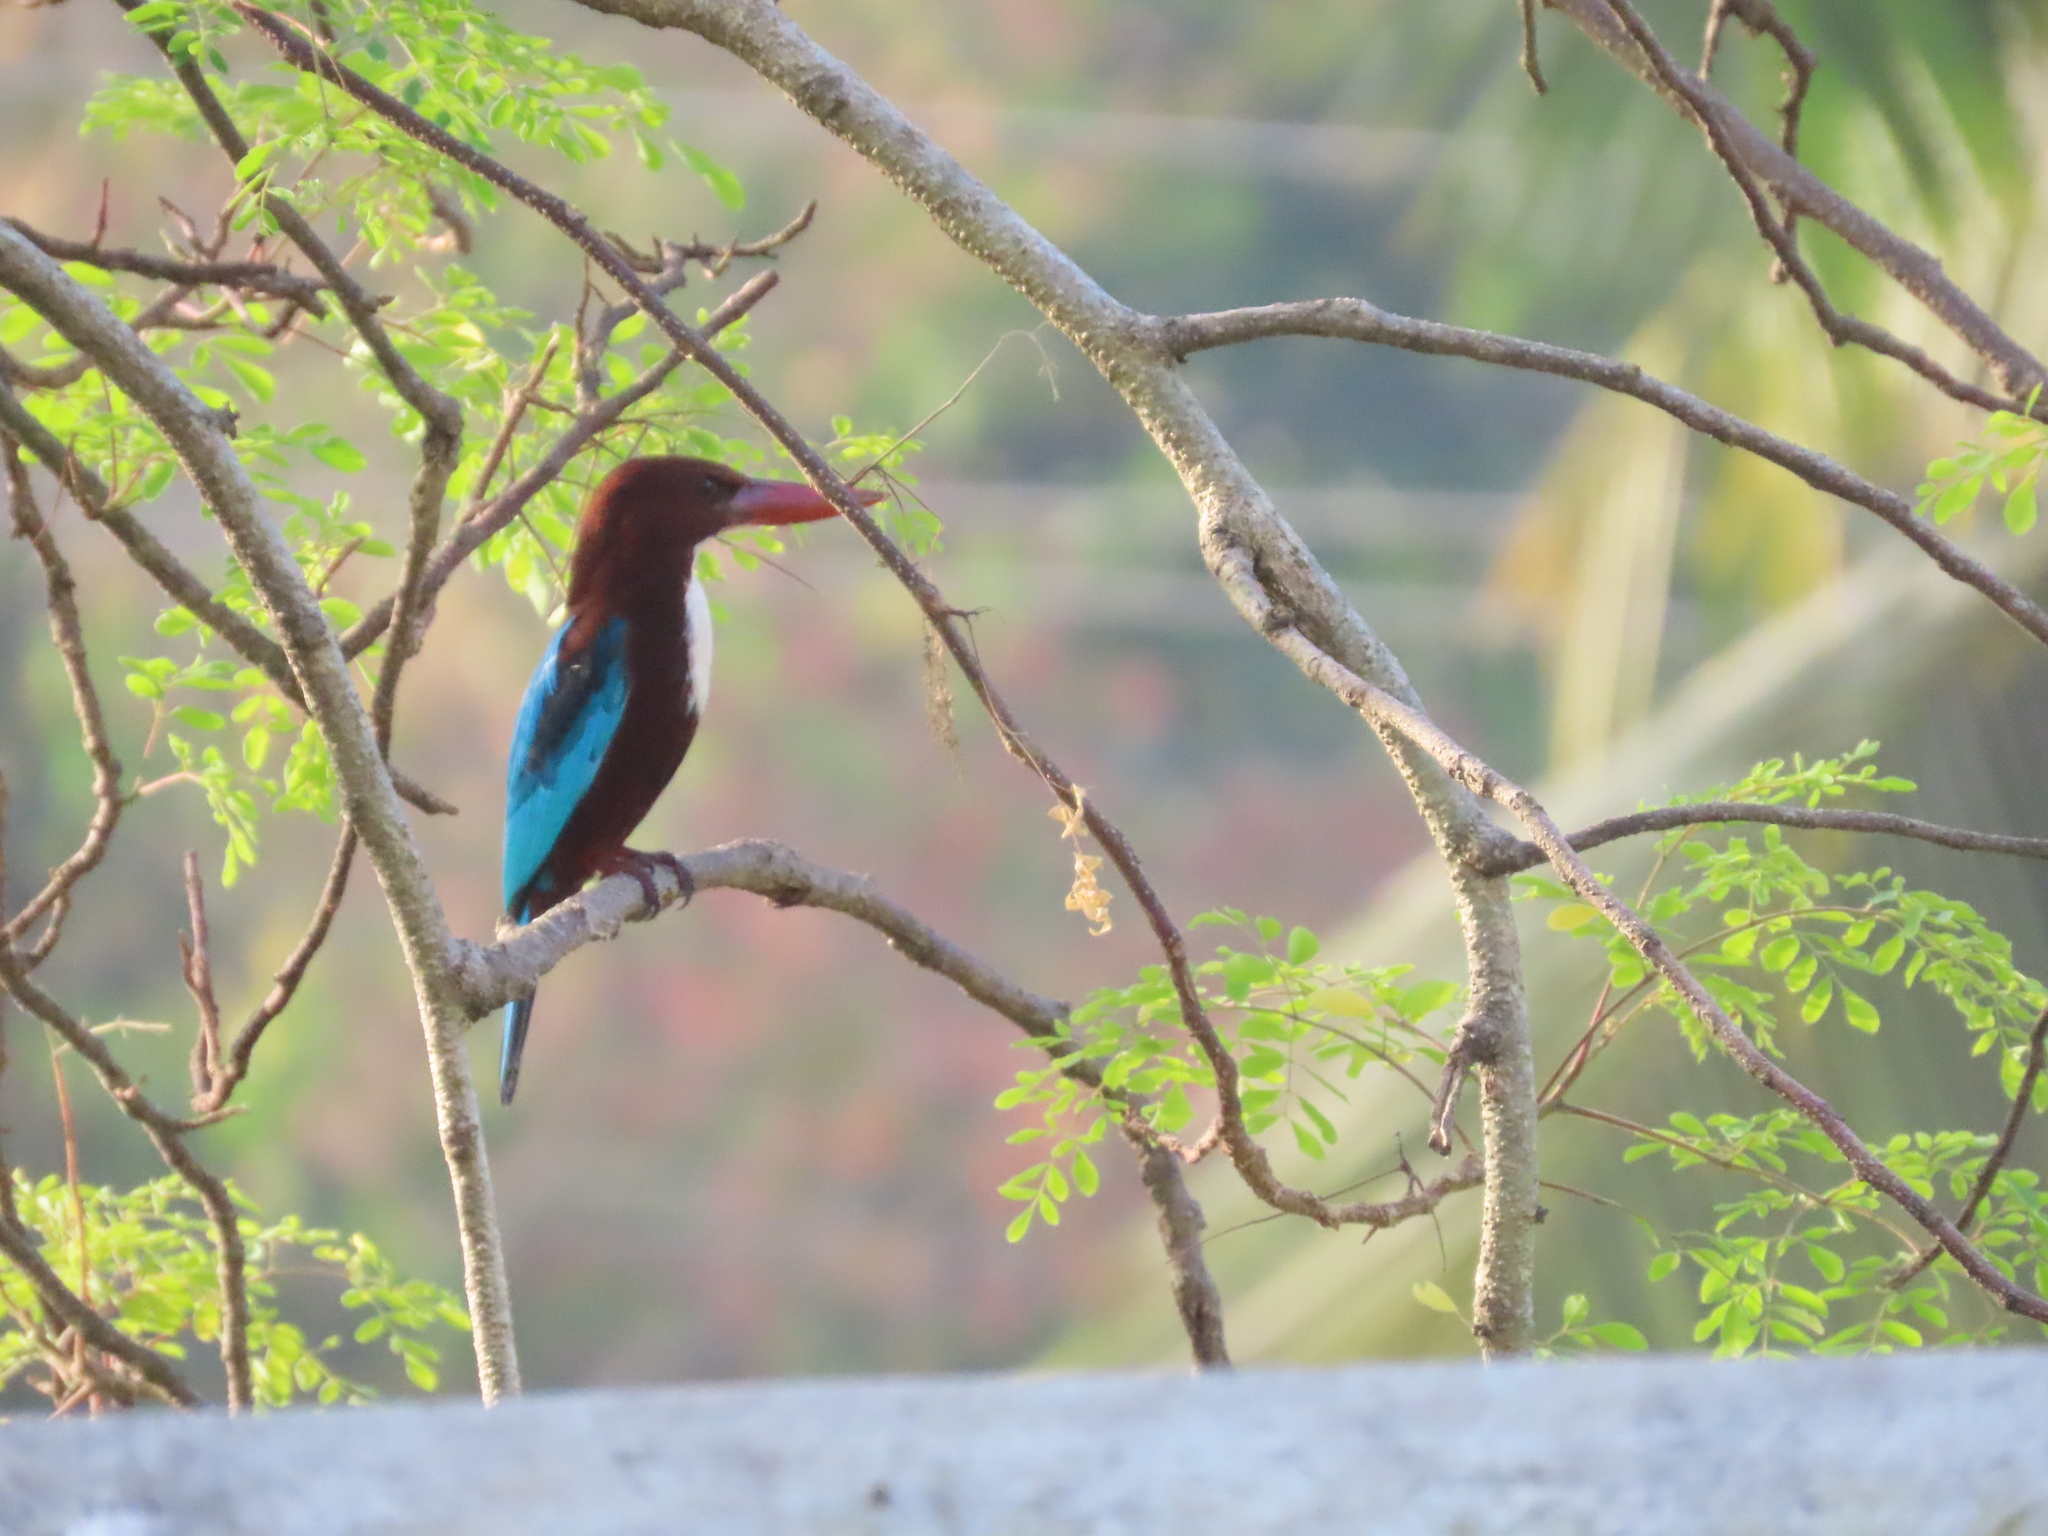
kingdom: Animalia
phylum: Chordata
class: Aves
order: Coraciiformes
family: Alcedinidae
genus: Halcyon
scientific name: Halcyon smyrnensis
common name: White-throated kingfisher
